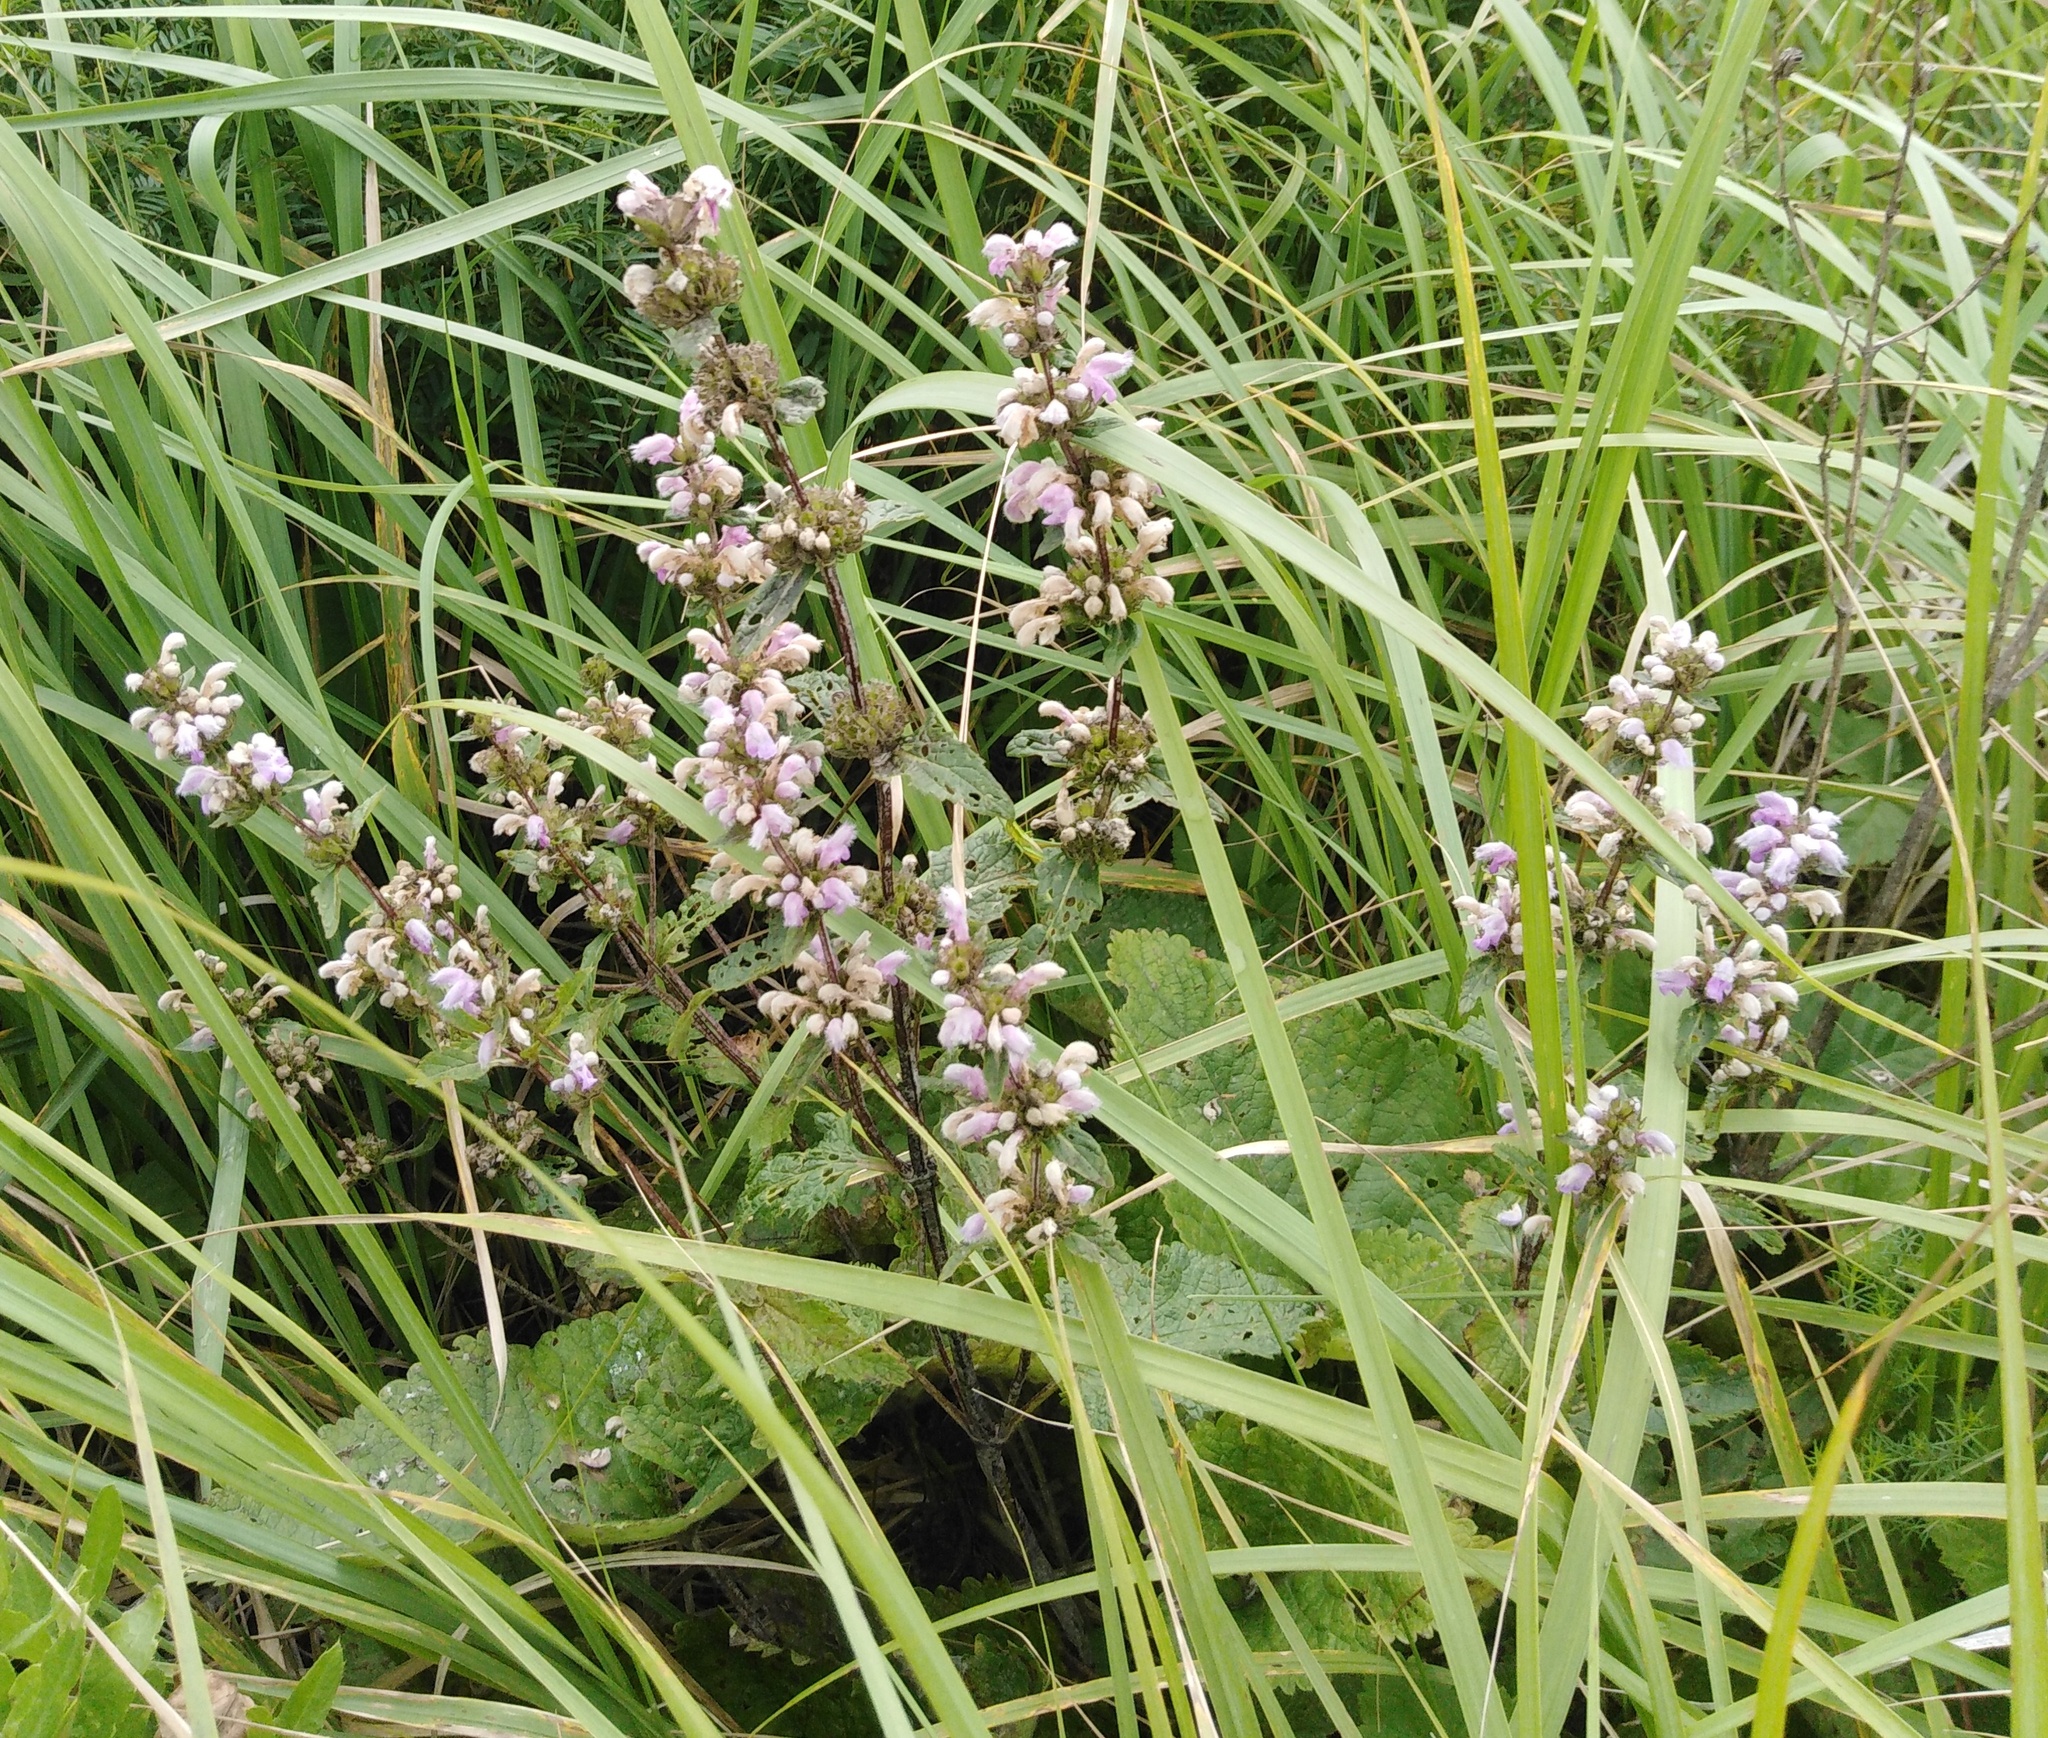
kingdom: Plantae
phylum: Tracheophyta
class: Magnoliopsida
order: Lamiales
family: Lamiaceae
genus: Phlomoides
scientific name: Phlomoides tuberosa
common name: Tuberous jerusalem sage
